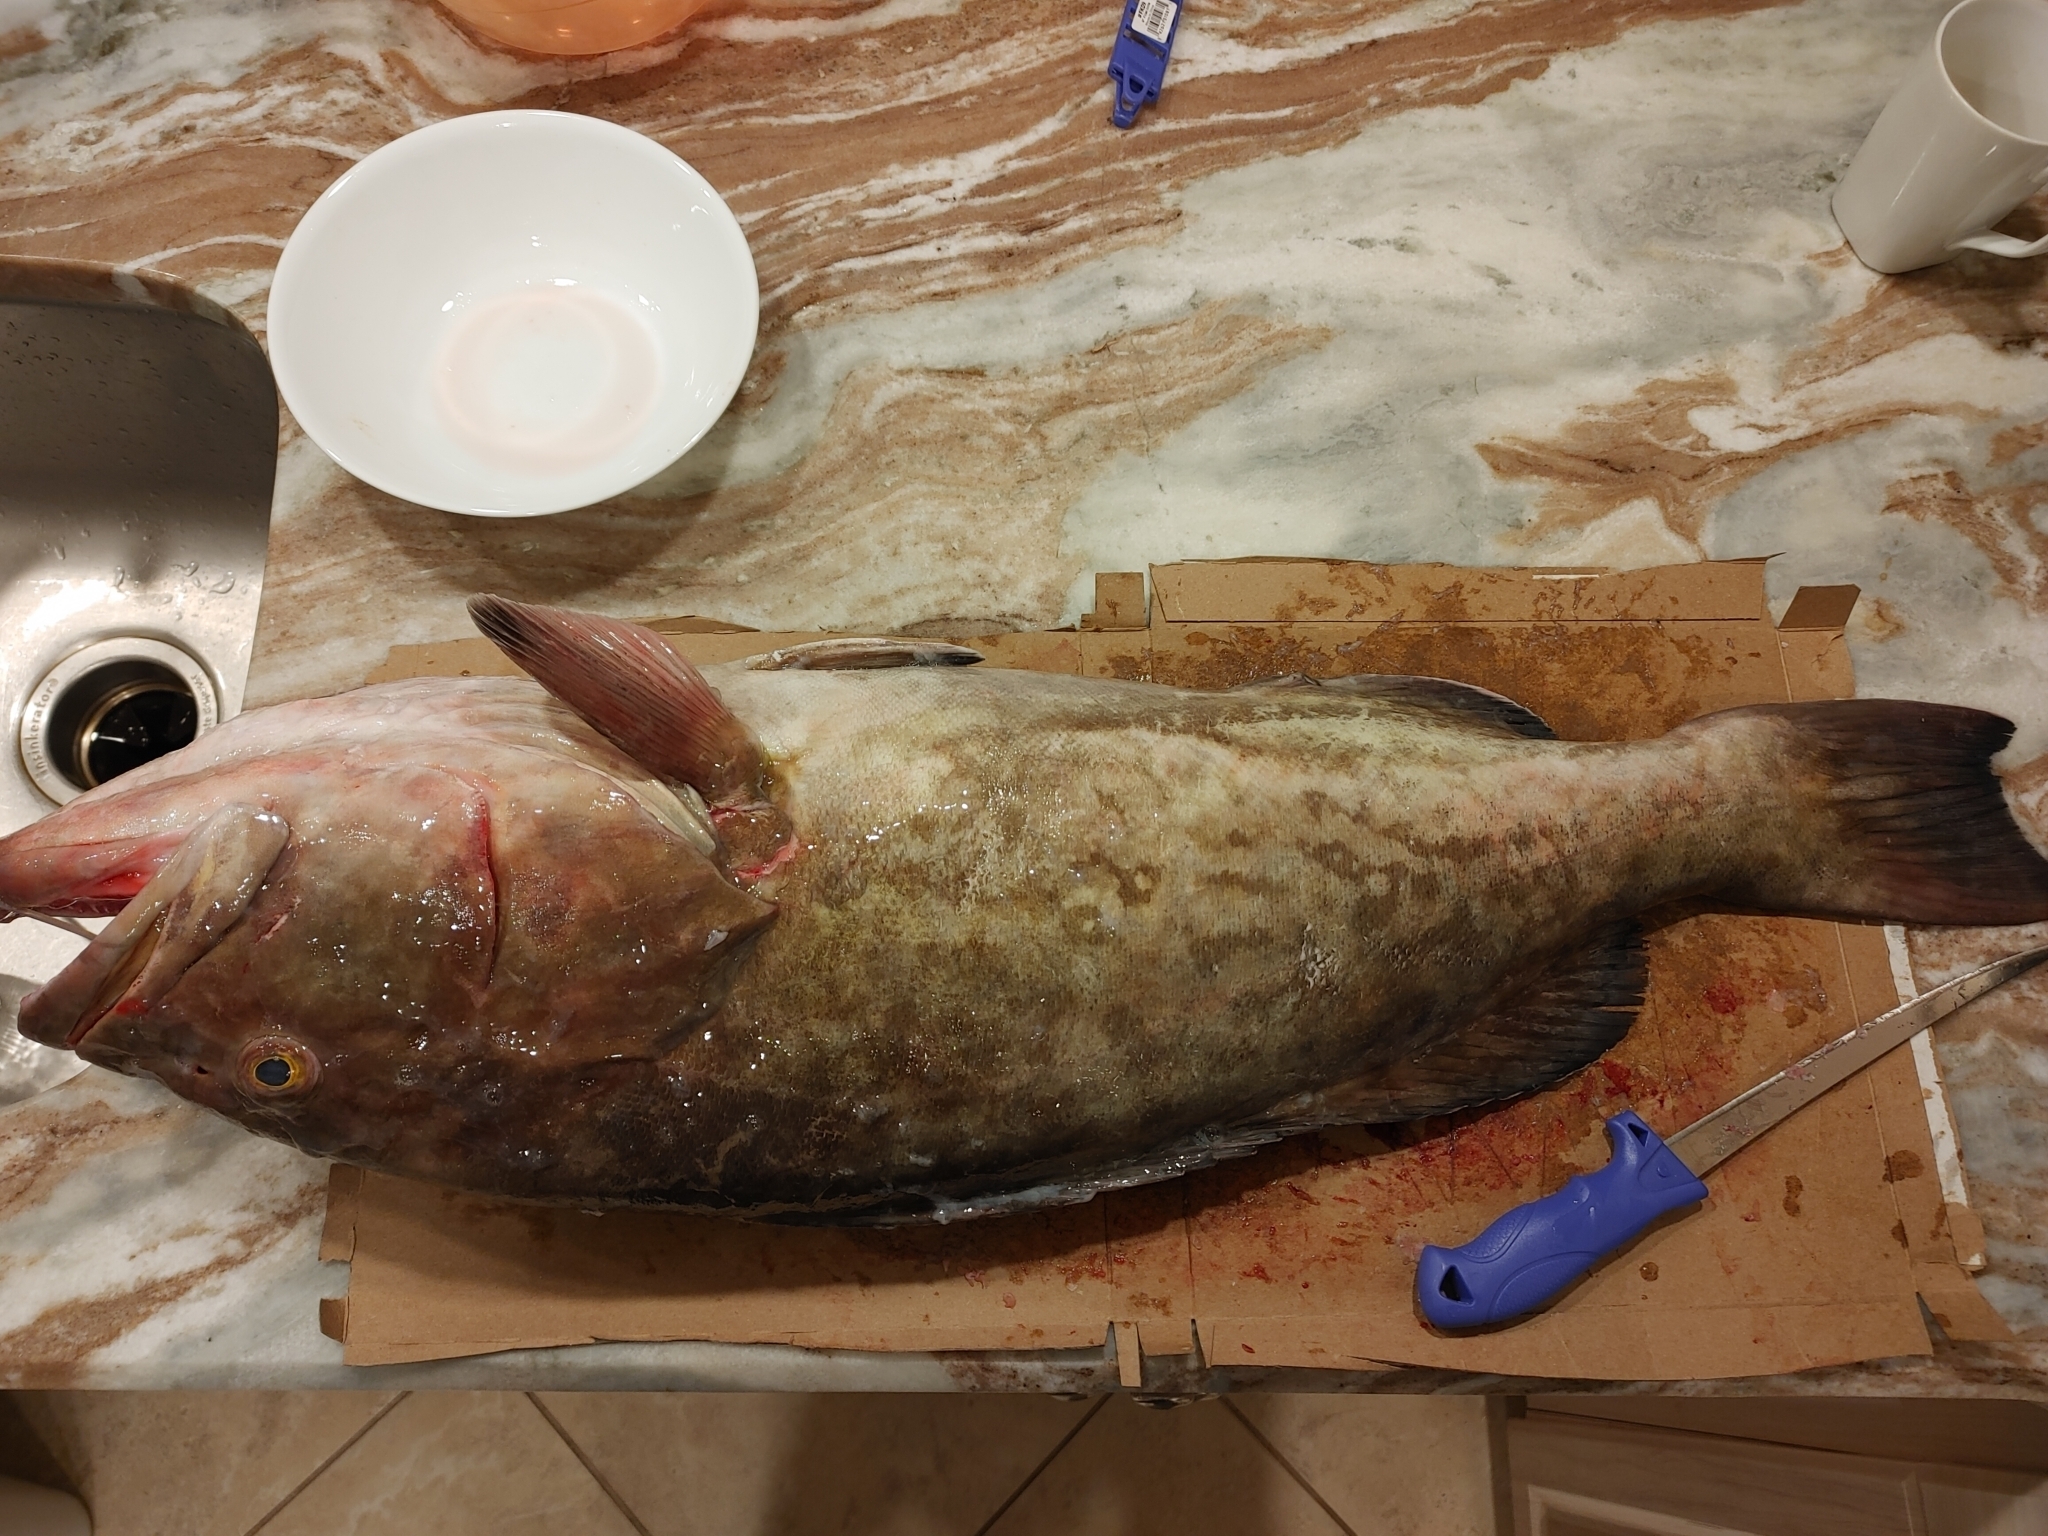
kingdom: Animalia
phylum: Chordata
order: Perciformes
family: Serranidae
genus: Mycteroperca
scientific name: Mycteroperca microlepis
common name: Gag
